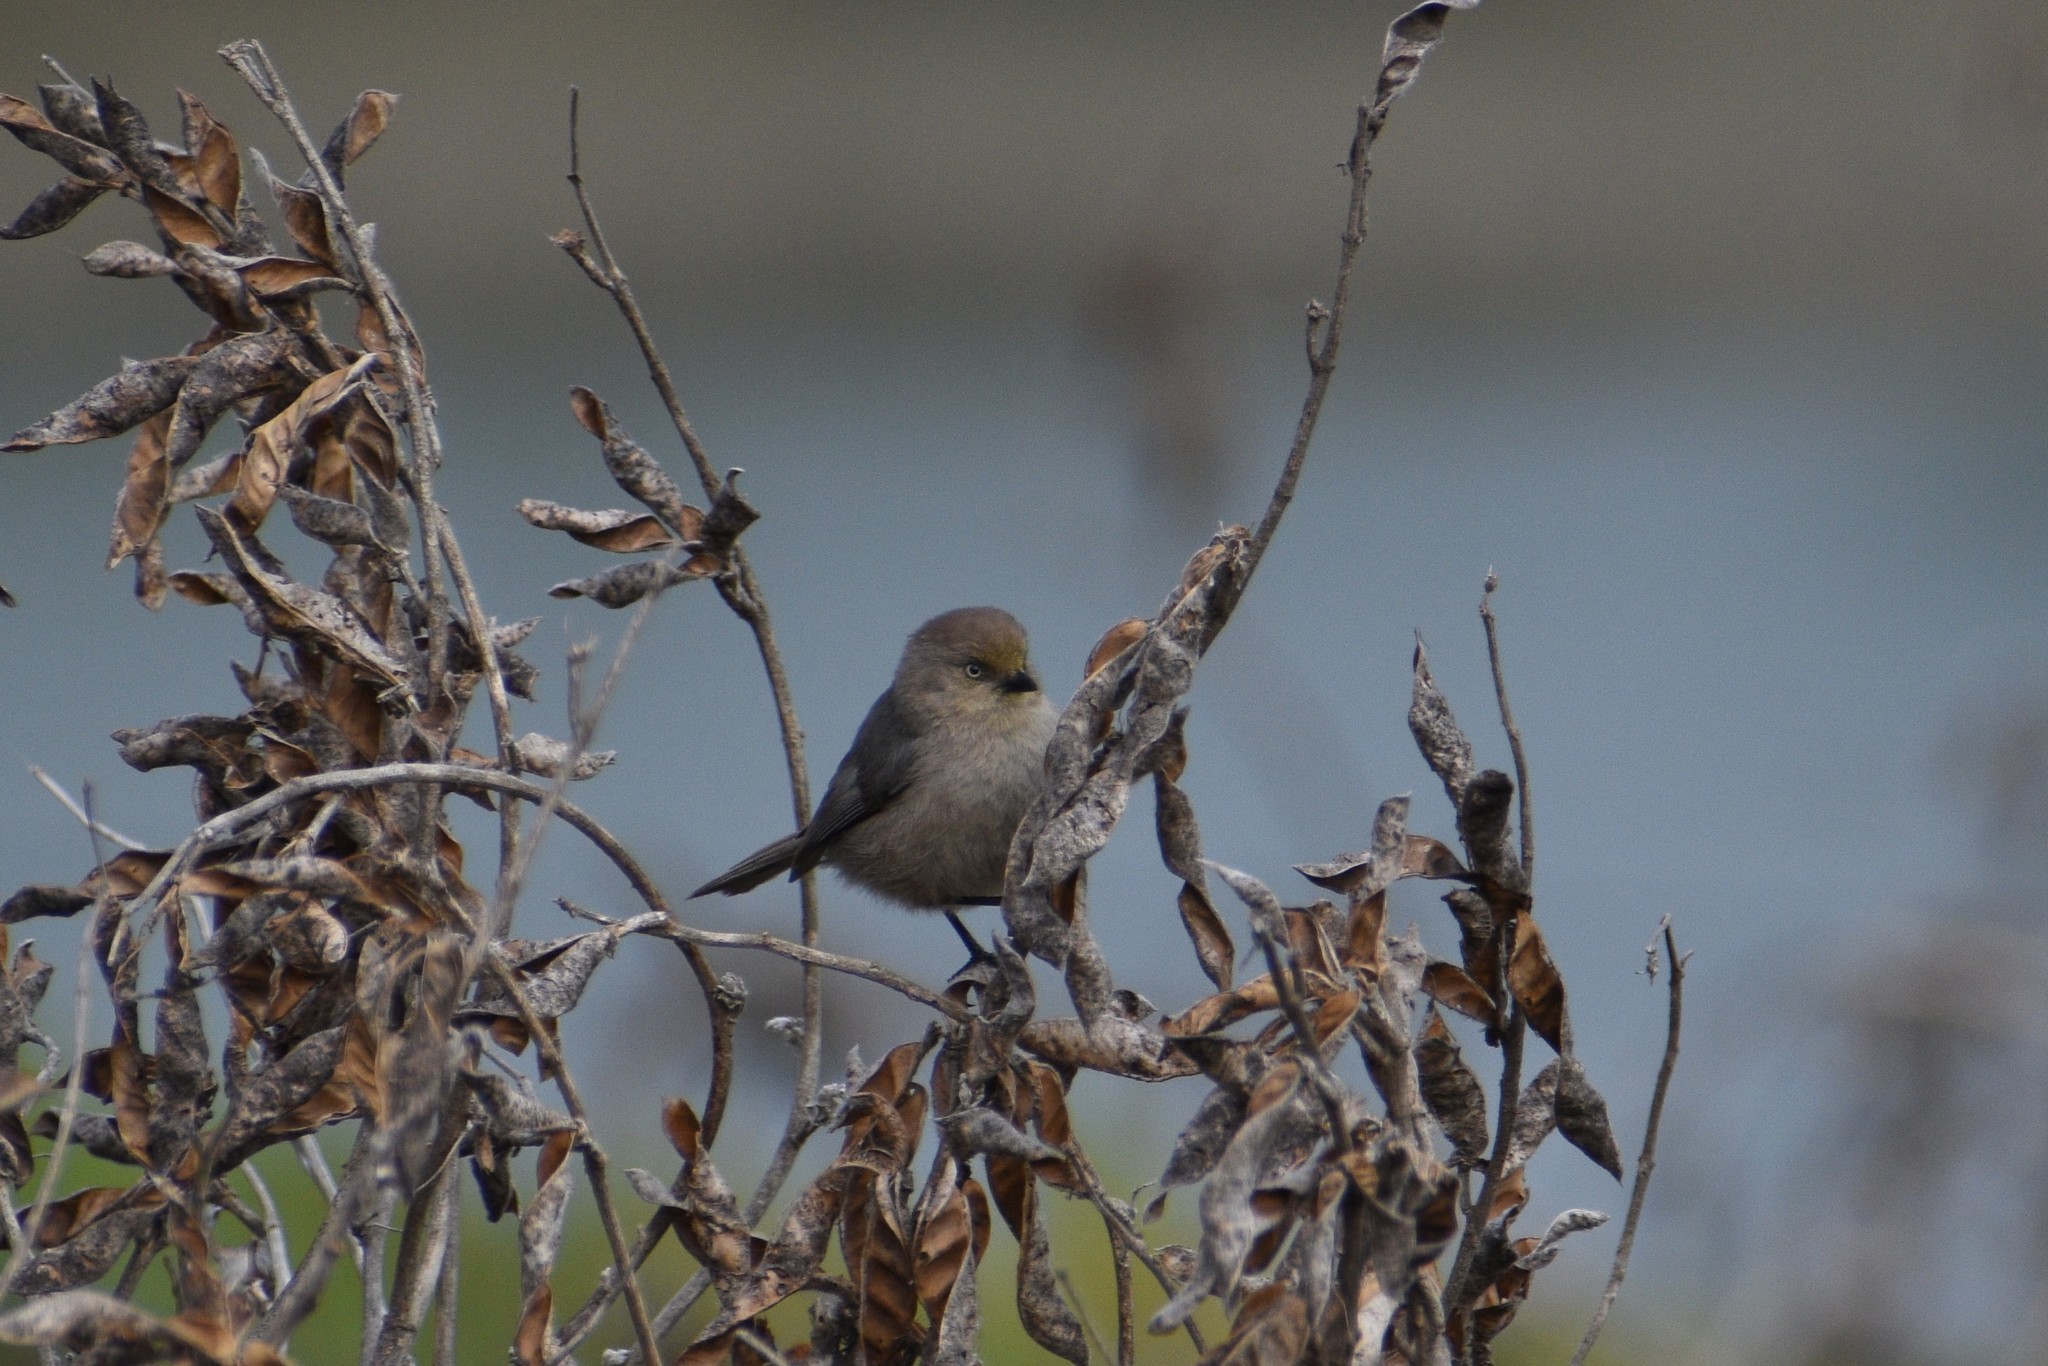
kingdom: Animalia
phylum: Chordata
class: Aves
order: Passeriformes
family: Aegithalidae
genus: Psaltriparus
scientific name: Psaltriparus minimus
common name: American bushtit
